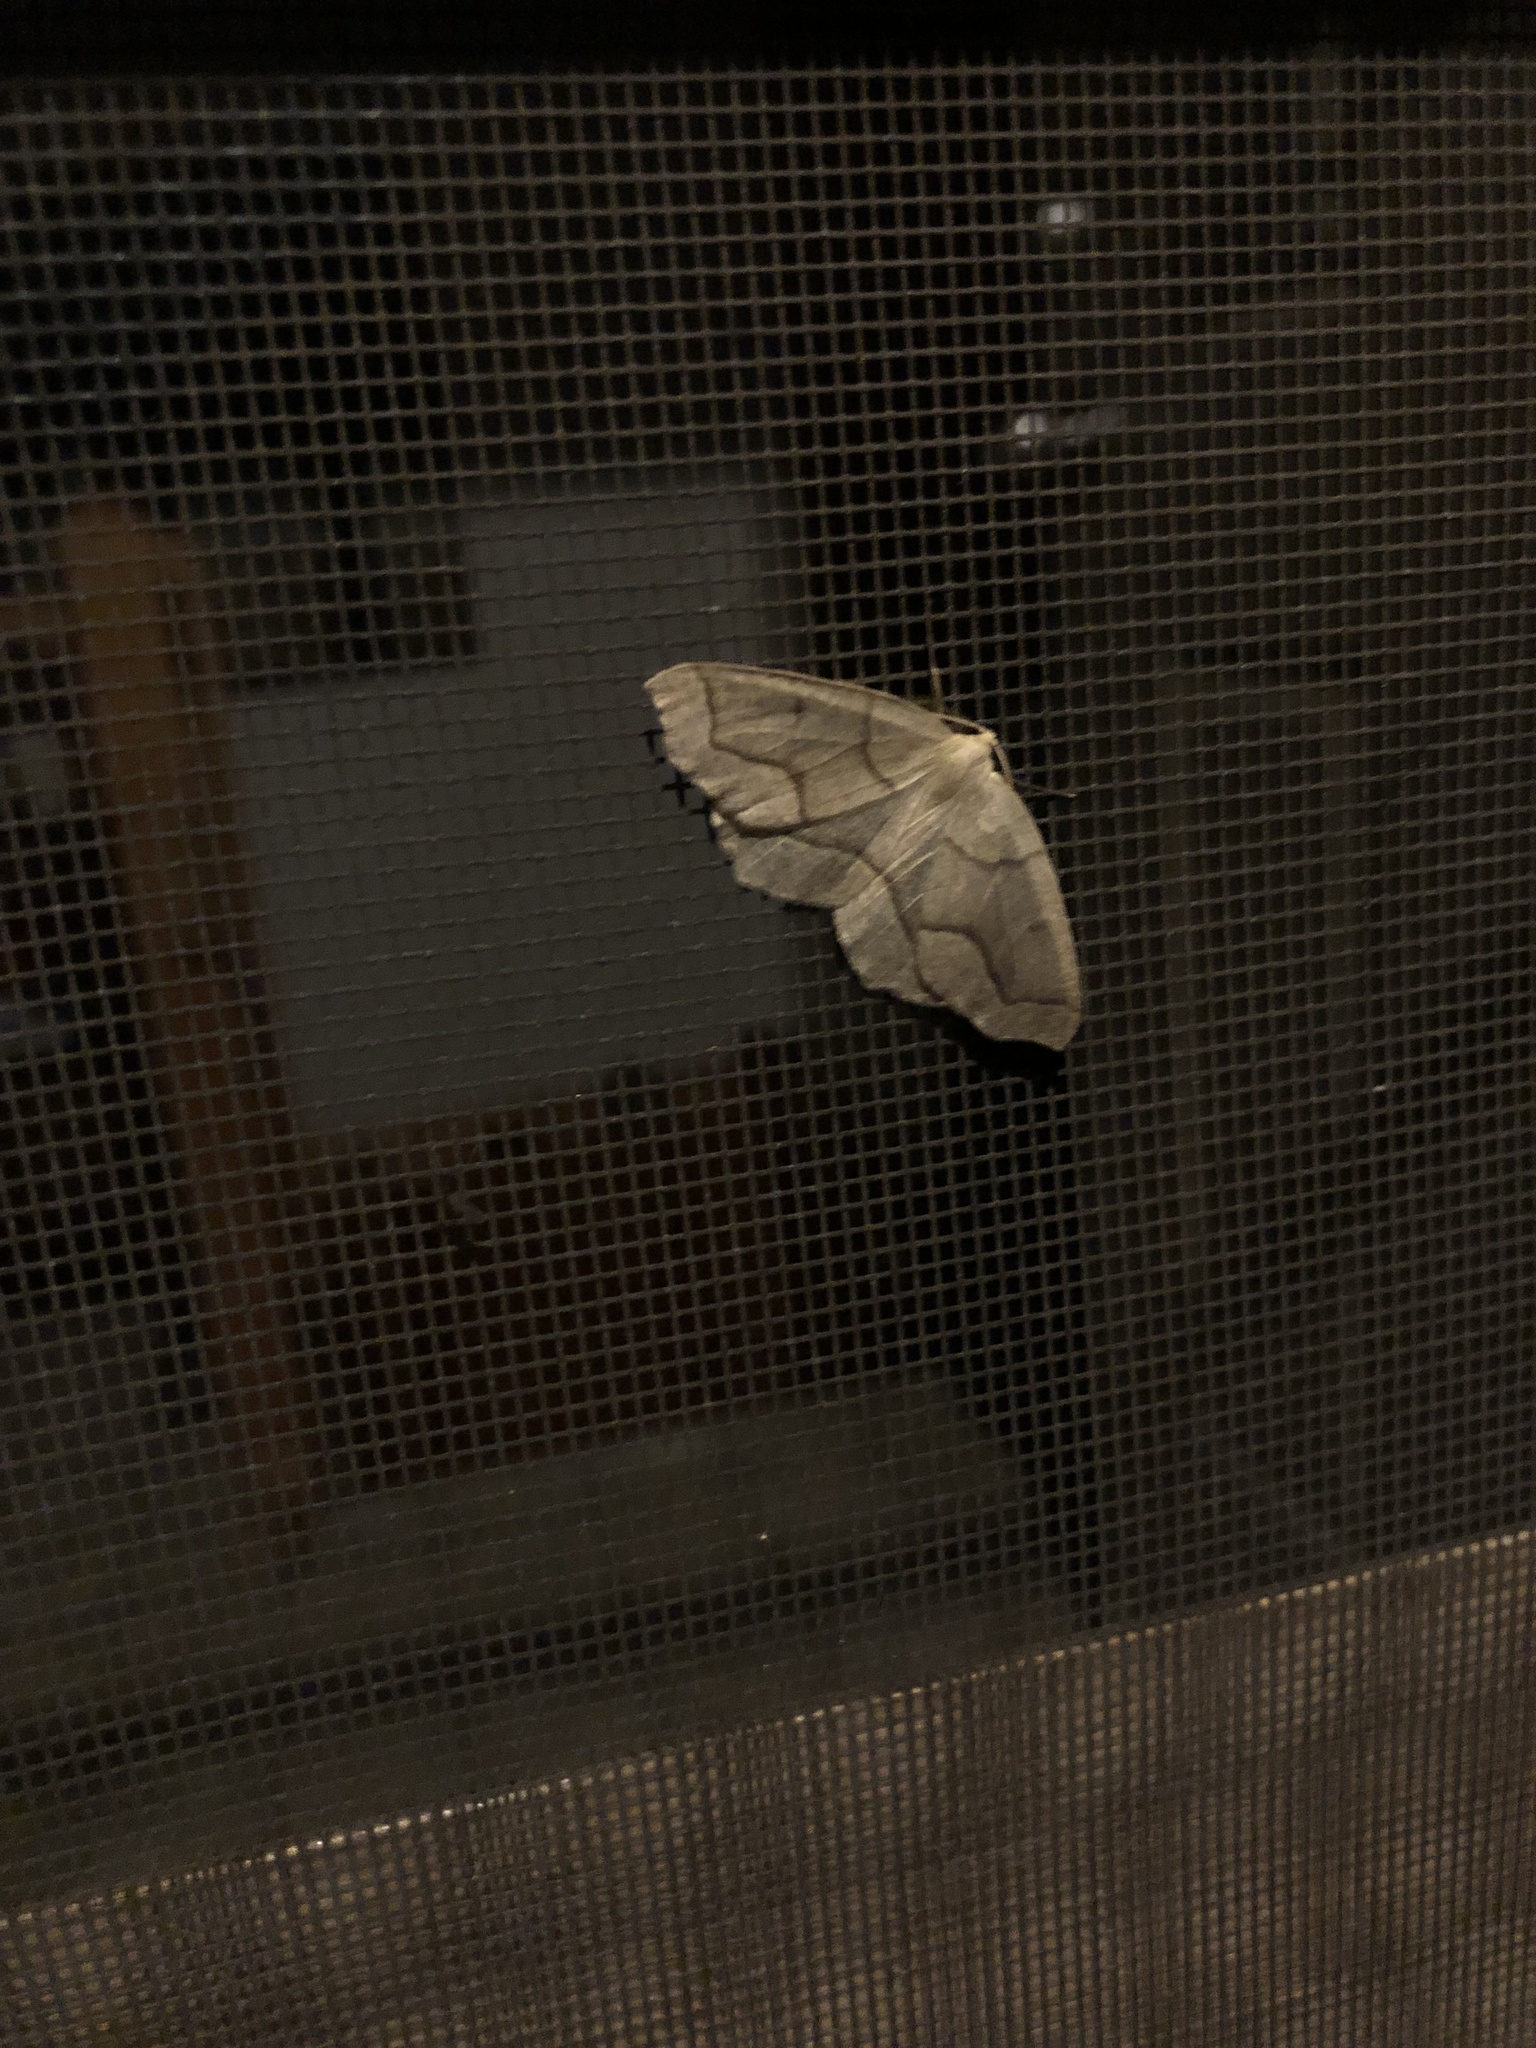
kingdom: Animalia
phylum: Arthropoda
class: Insecta
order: Lepidoptera
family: Geometridae
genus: Lambdina
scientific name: Lambdina fiscellaria
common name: Hemlock looper
